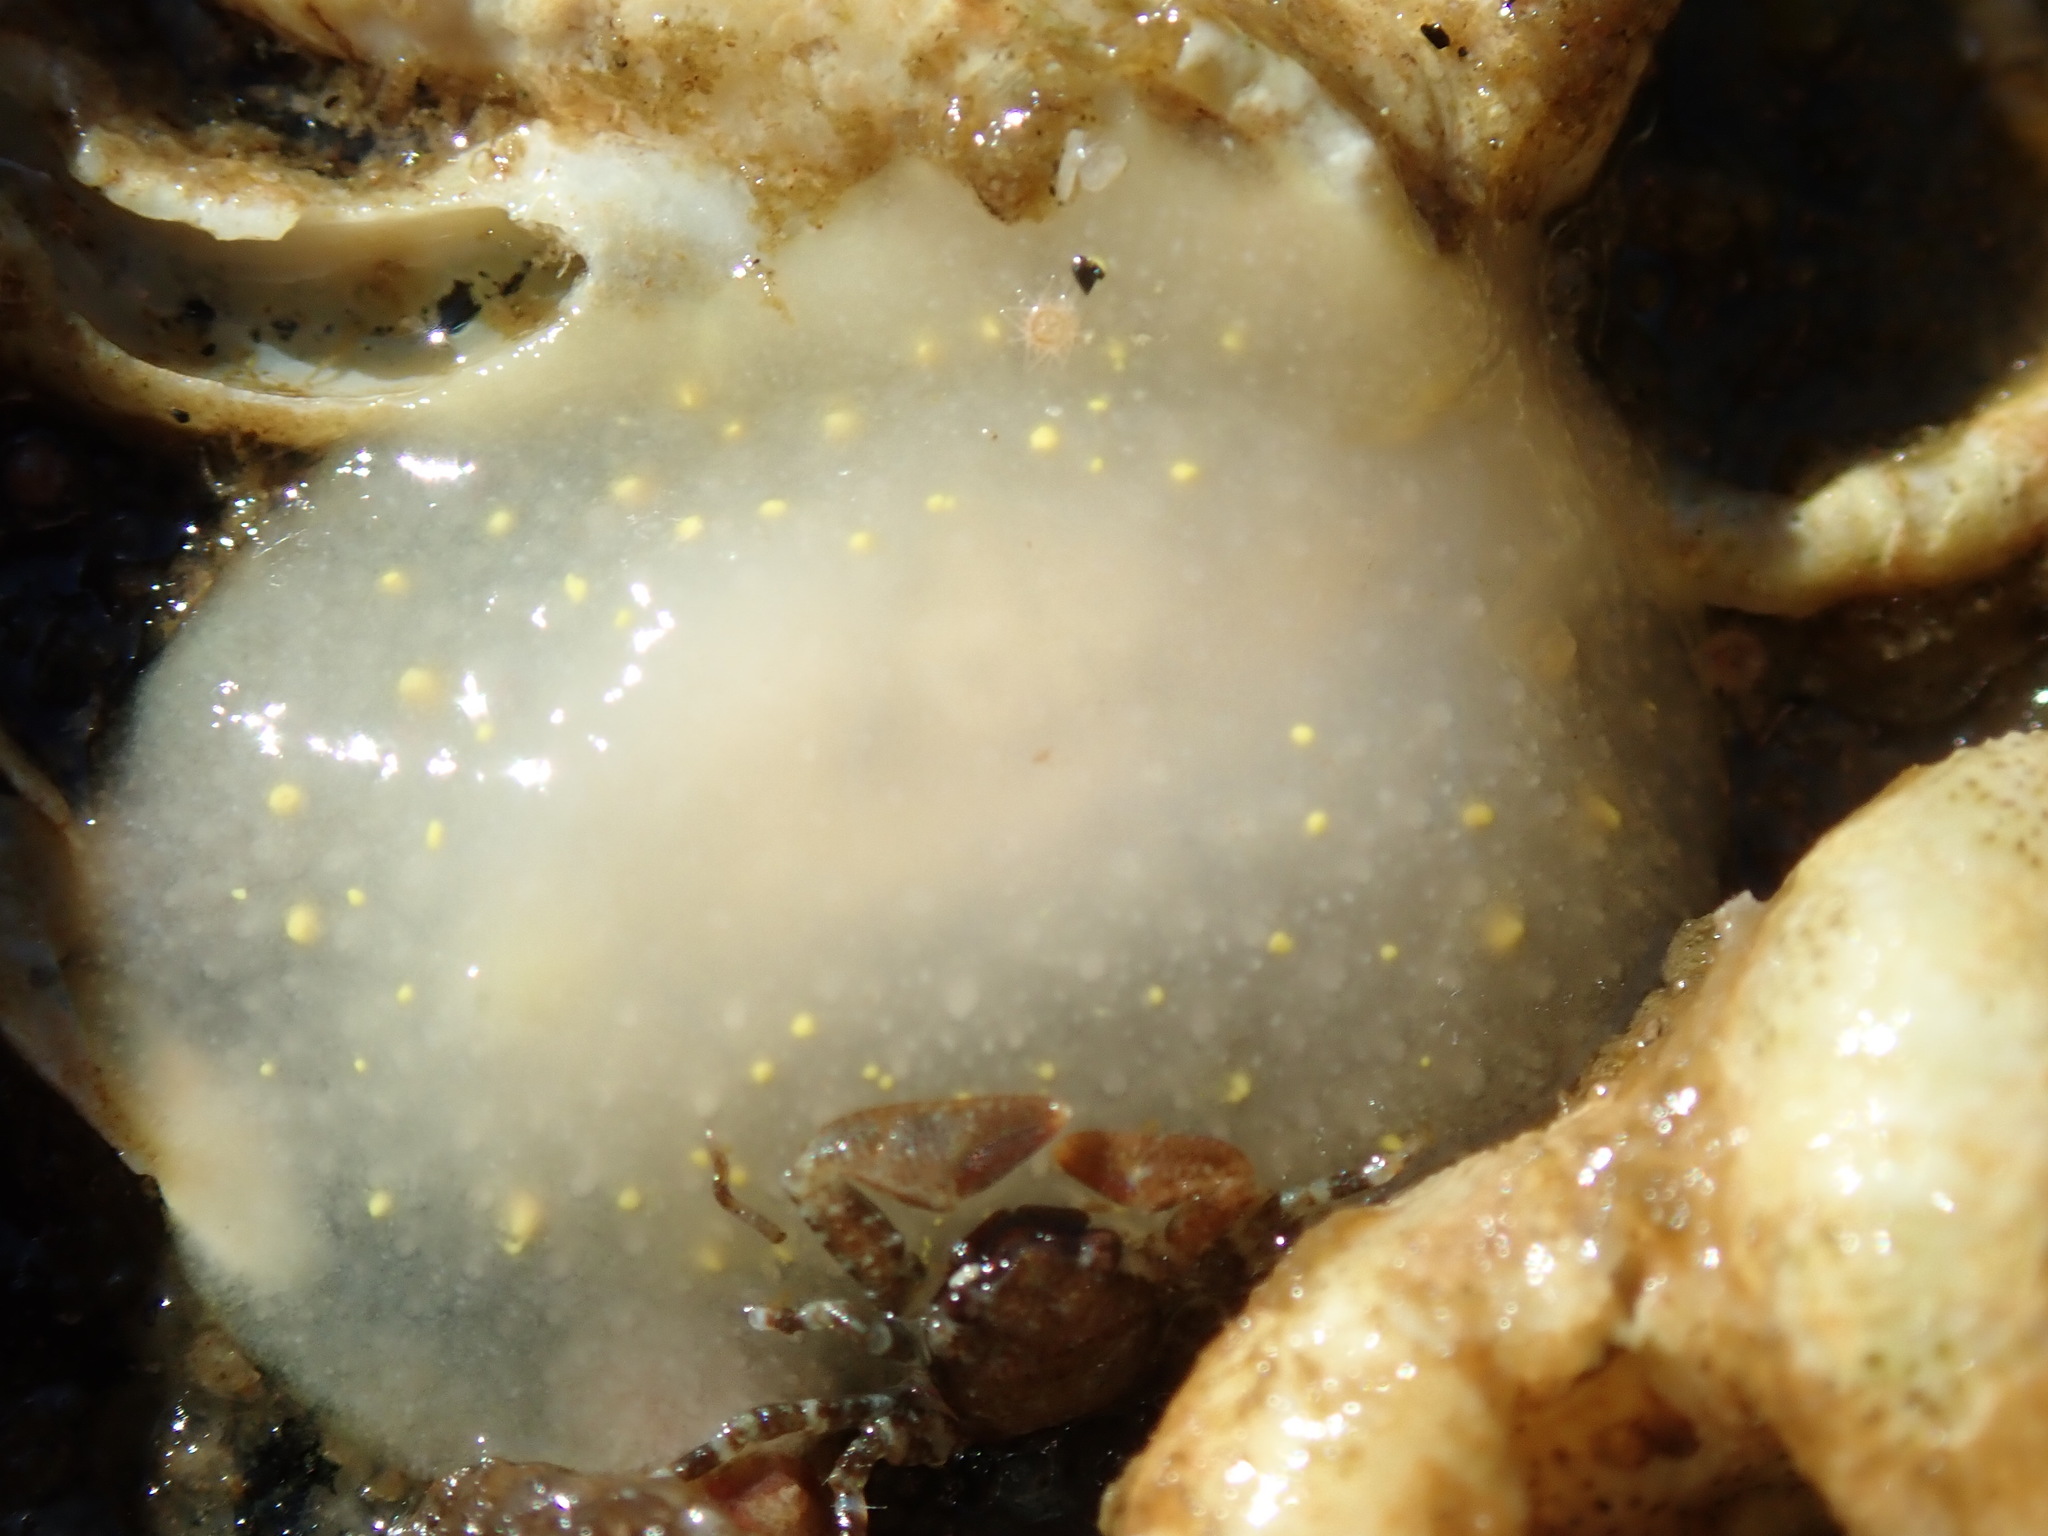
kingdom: Animalia
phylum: Mollusca
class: Gastropoda
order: Nudibranchia
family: Cadlinidae
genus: Cadlina
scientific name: Cadlina modesta
